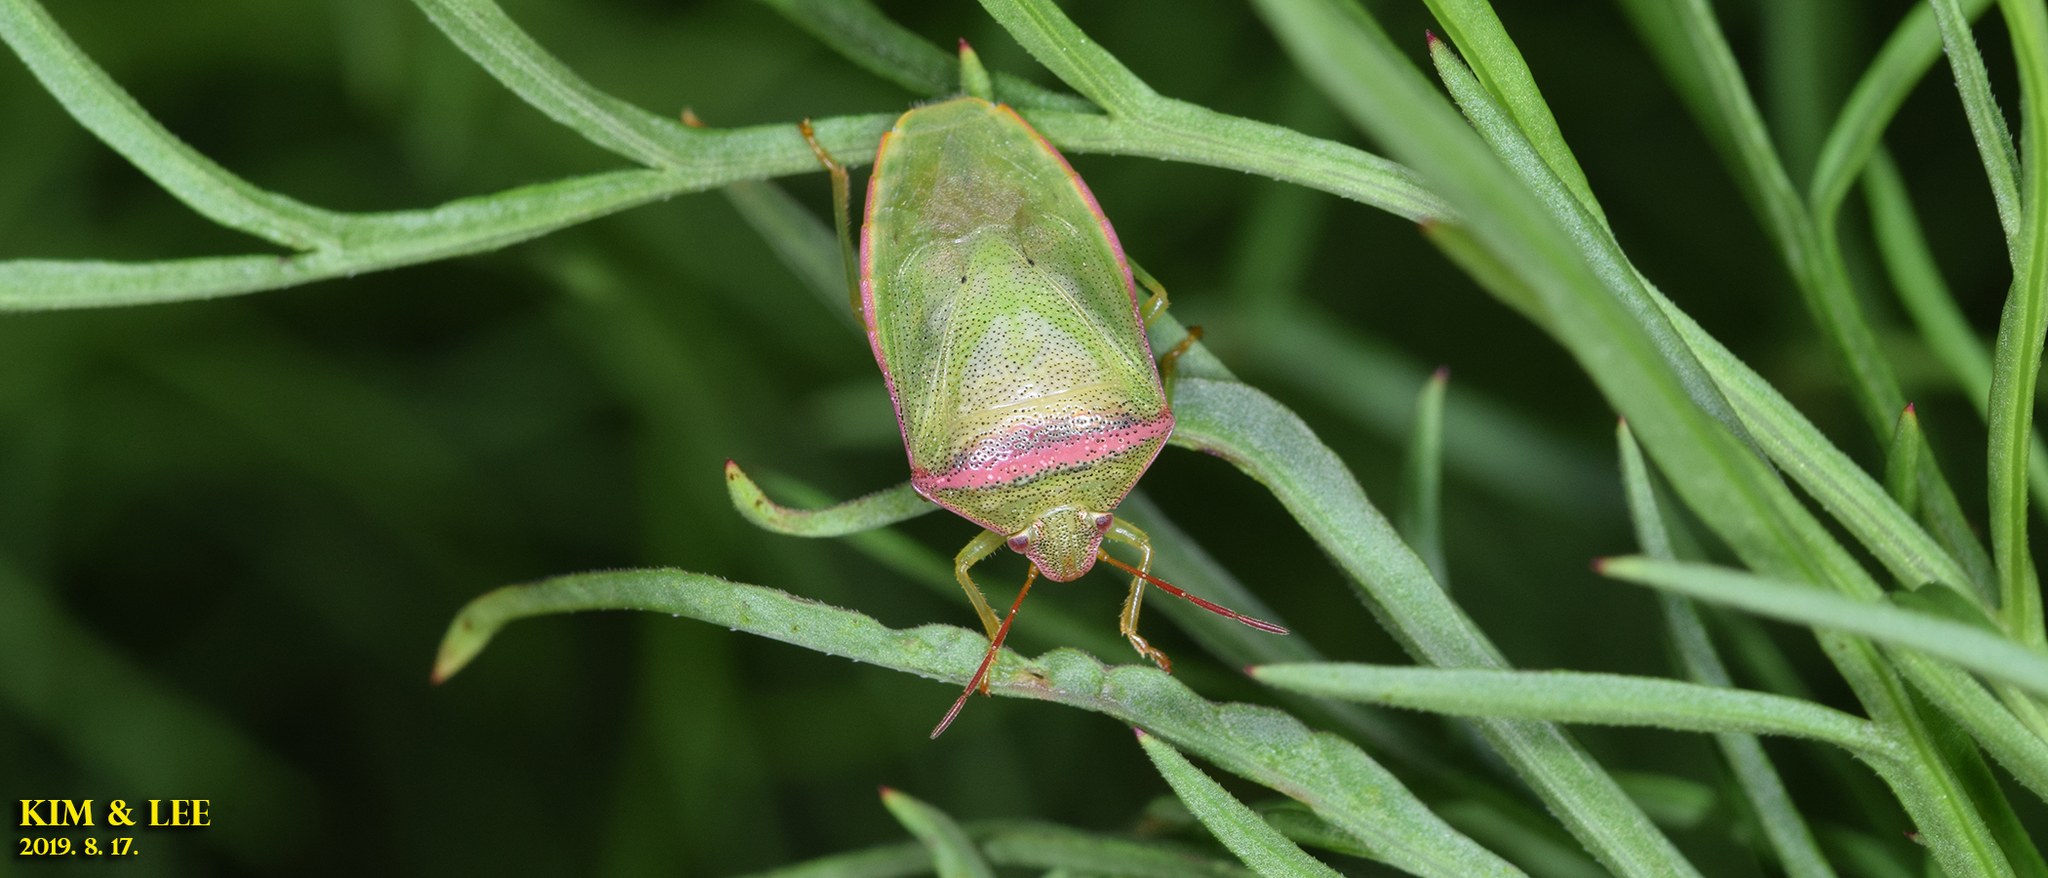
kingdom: Animalia
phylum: Arthropoda
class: Insecta
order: Hemiptera
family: Pentatomidae
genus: Piezodorus
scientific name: Piezodorus hybneri
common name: Stink bug
